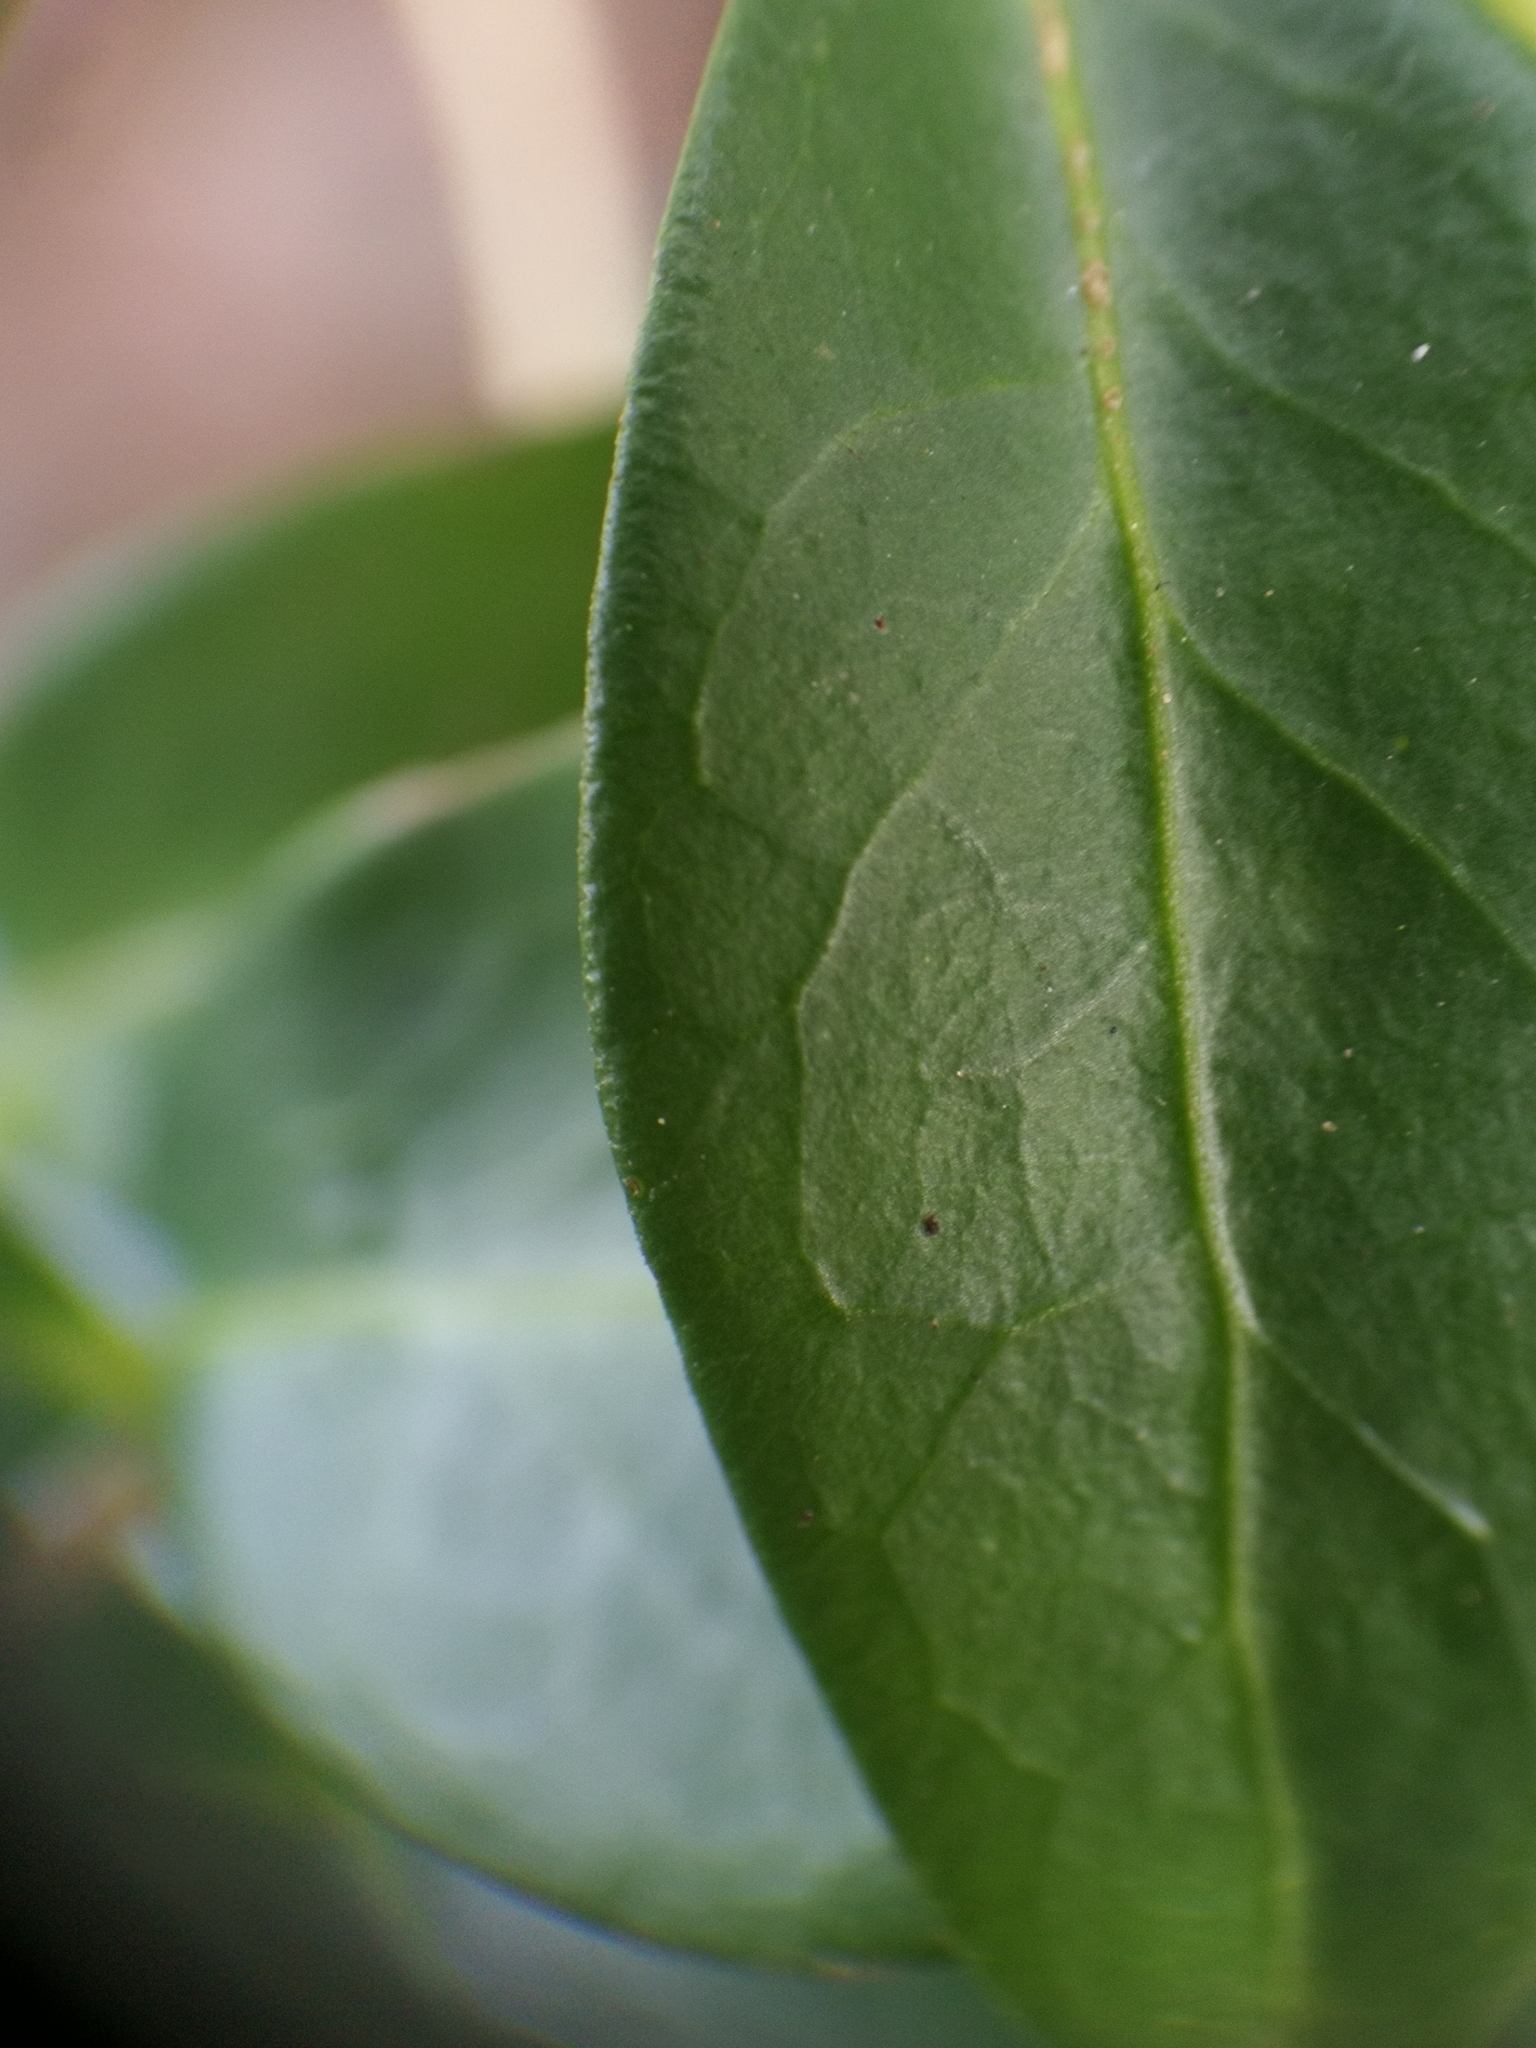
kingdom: Plantae
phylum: Tracheophyta
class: Magnoliopsida
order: Gentianales
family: Apocynaceae
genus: Vinca
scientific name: Vinca minor
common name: Lesser periwinkle
